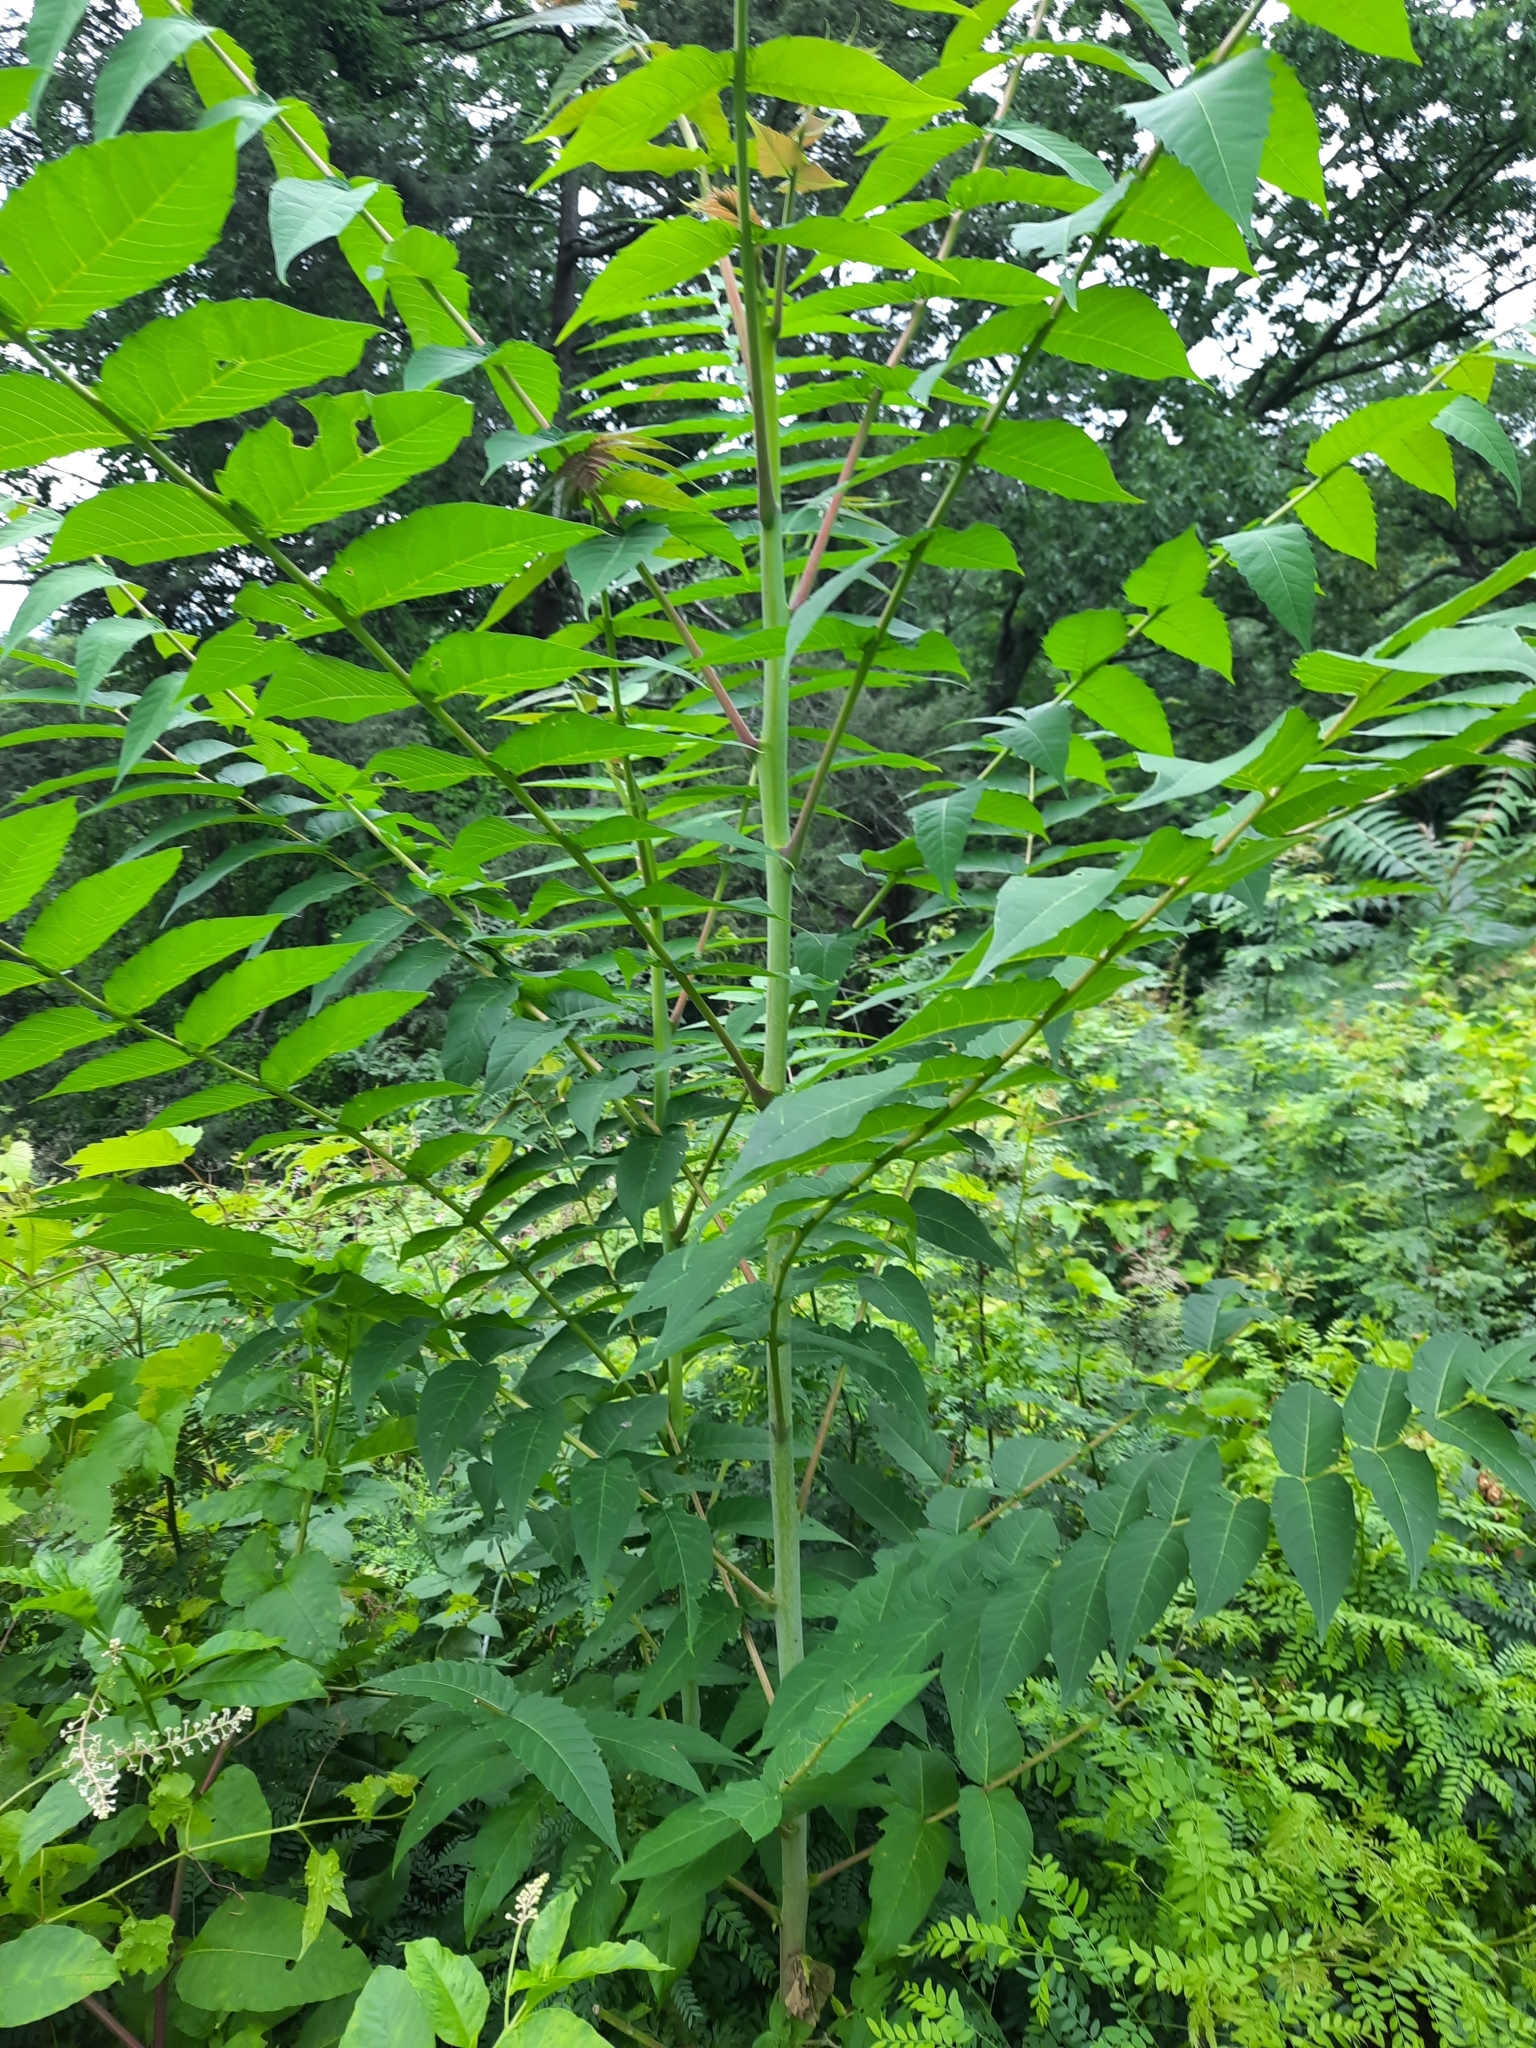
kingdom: Plantae
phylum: Tracheophyta
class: Magnoliopsida
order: Sapindales
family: Simaroubaceae
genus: Ailanthus
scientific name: Ailanthus altissima
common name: Tree-of-heaven
